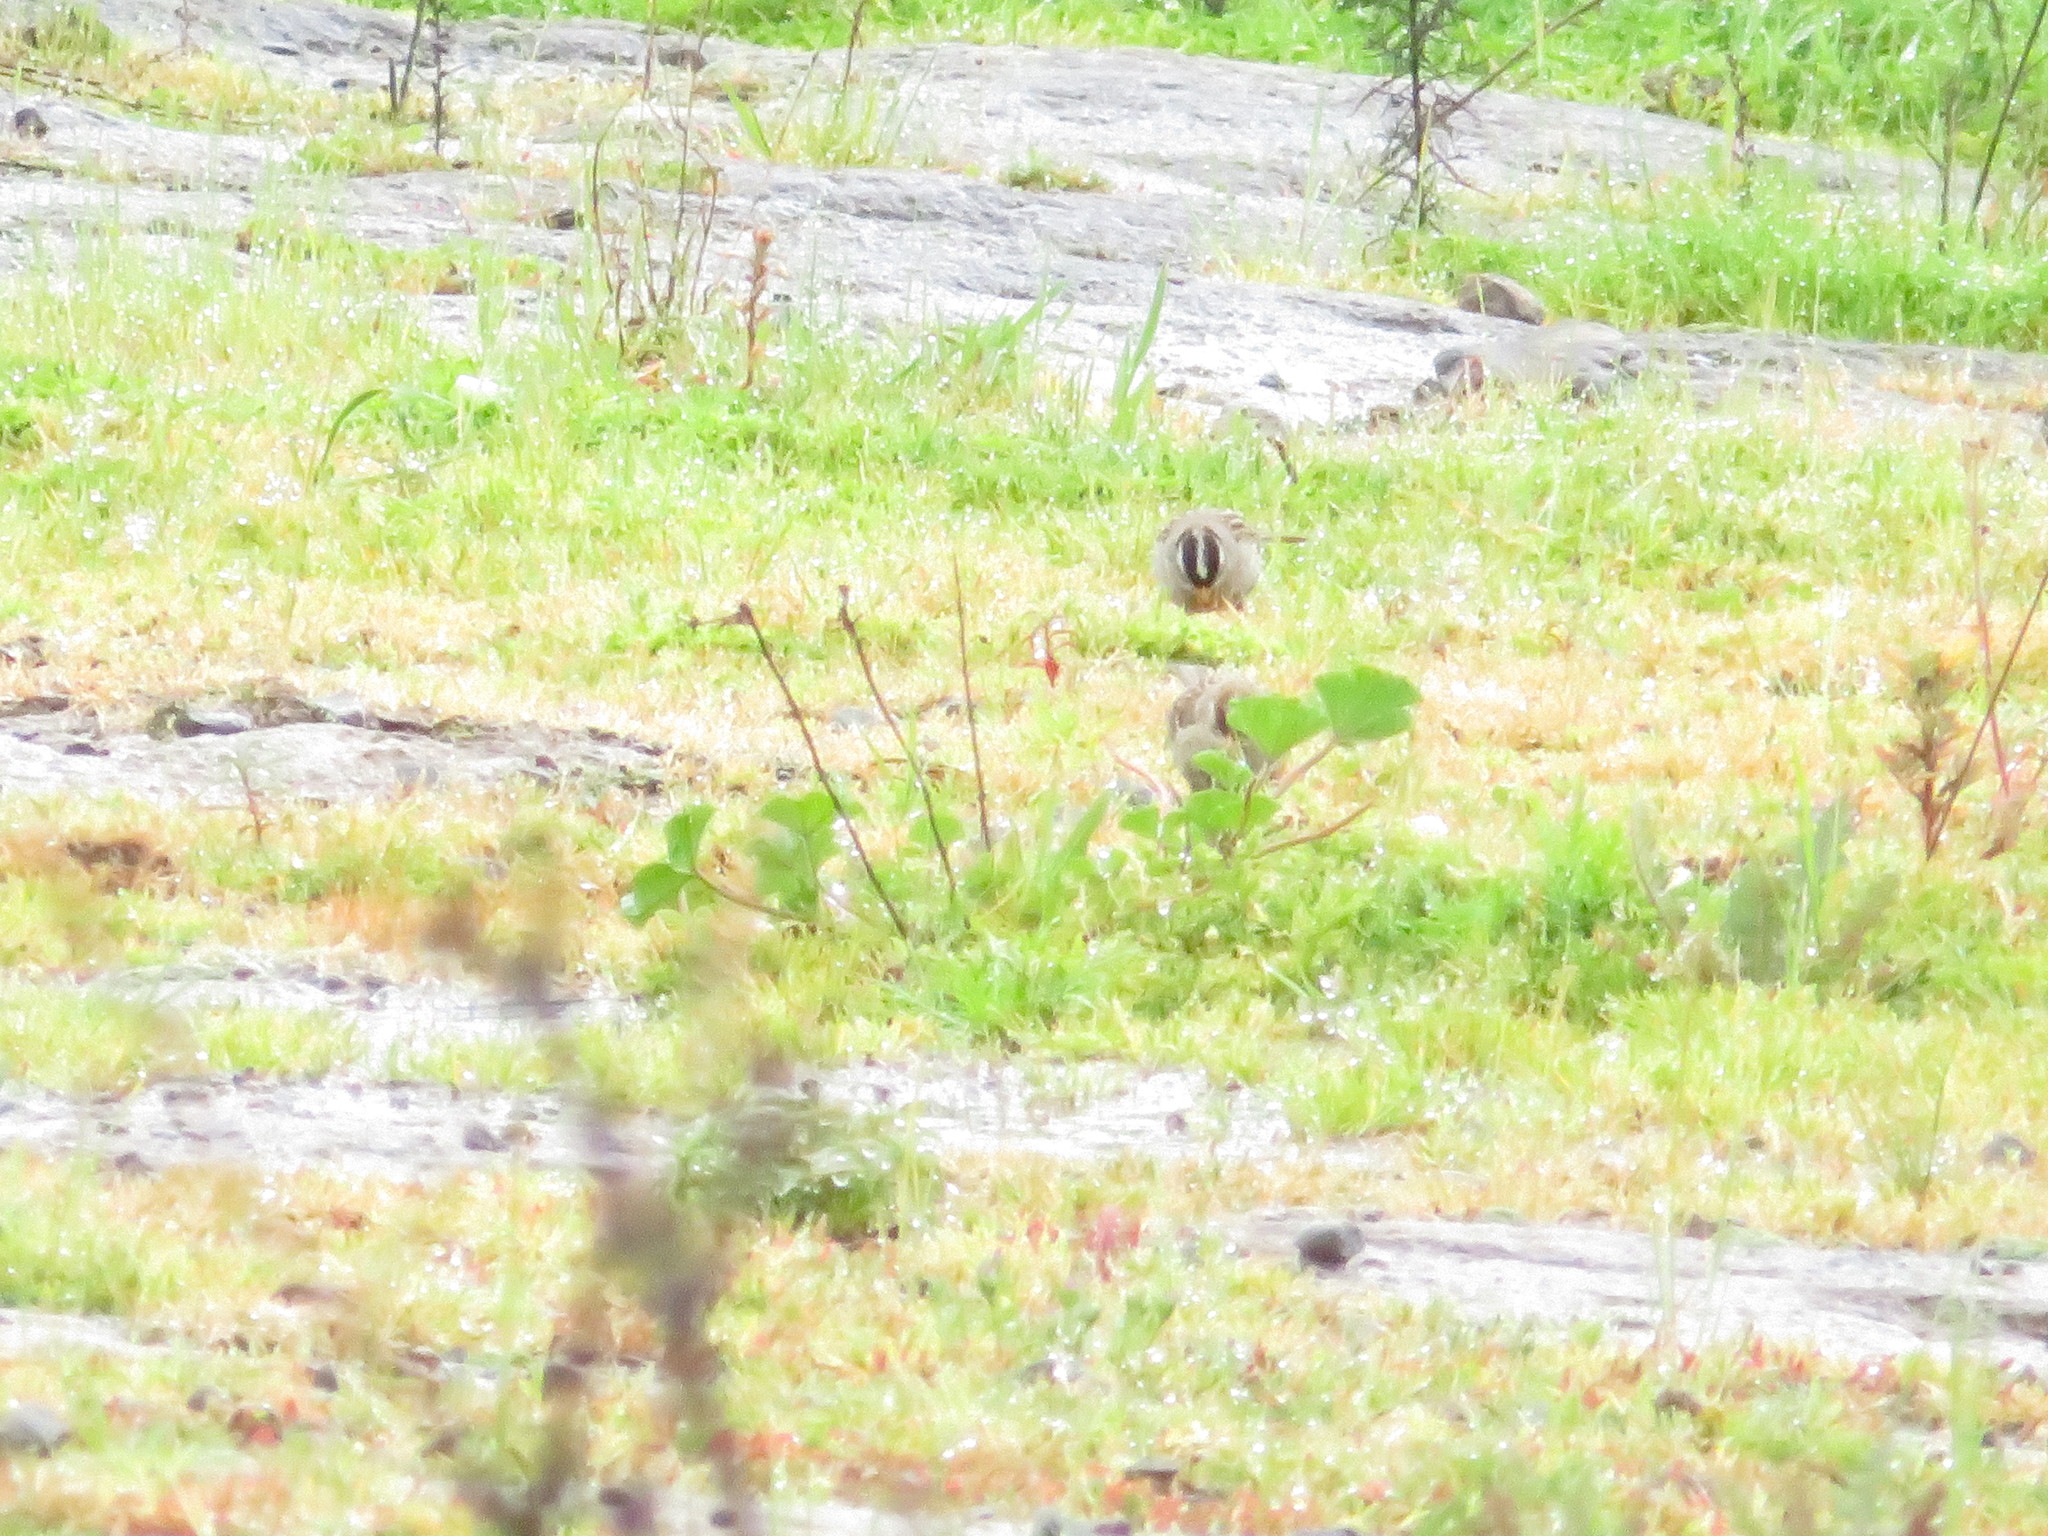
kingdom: Animalia
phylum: Chordata
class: Aves
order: Passeriformes
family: Passerellidae
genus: Zonotrichia
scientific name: Zonotrichia leucophrys
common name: White-crowned sparrow
